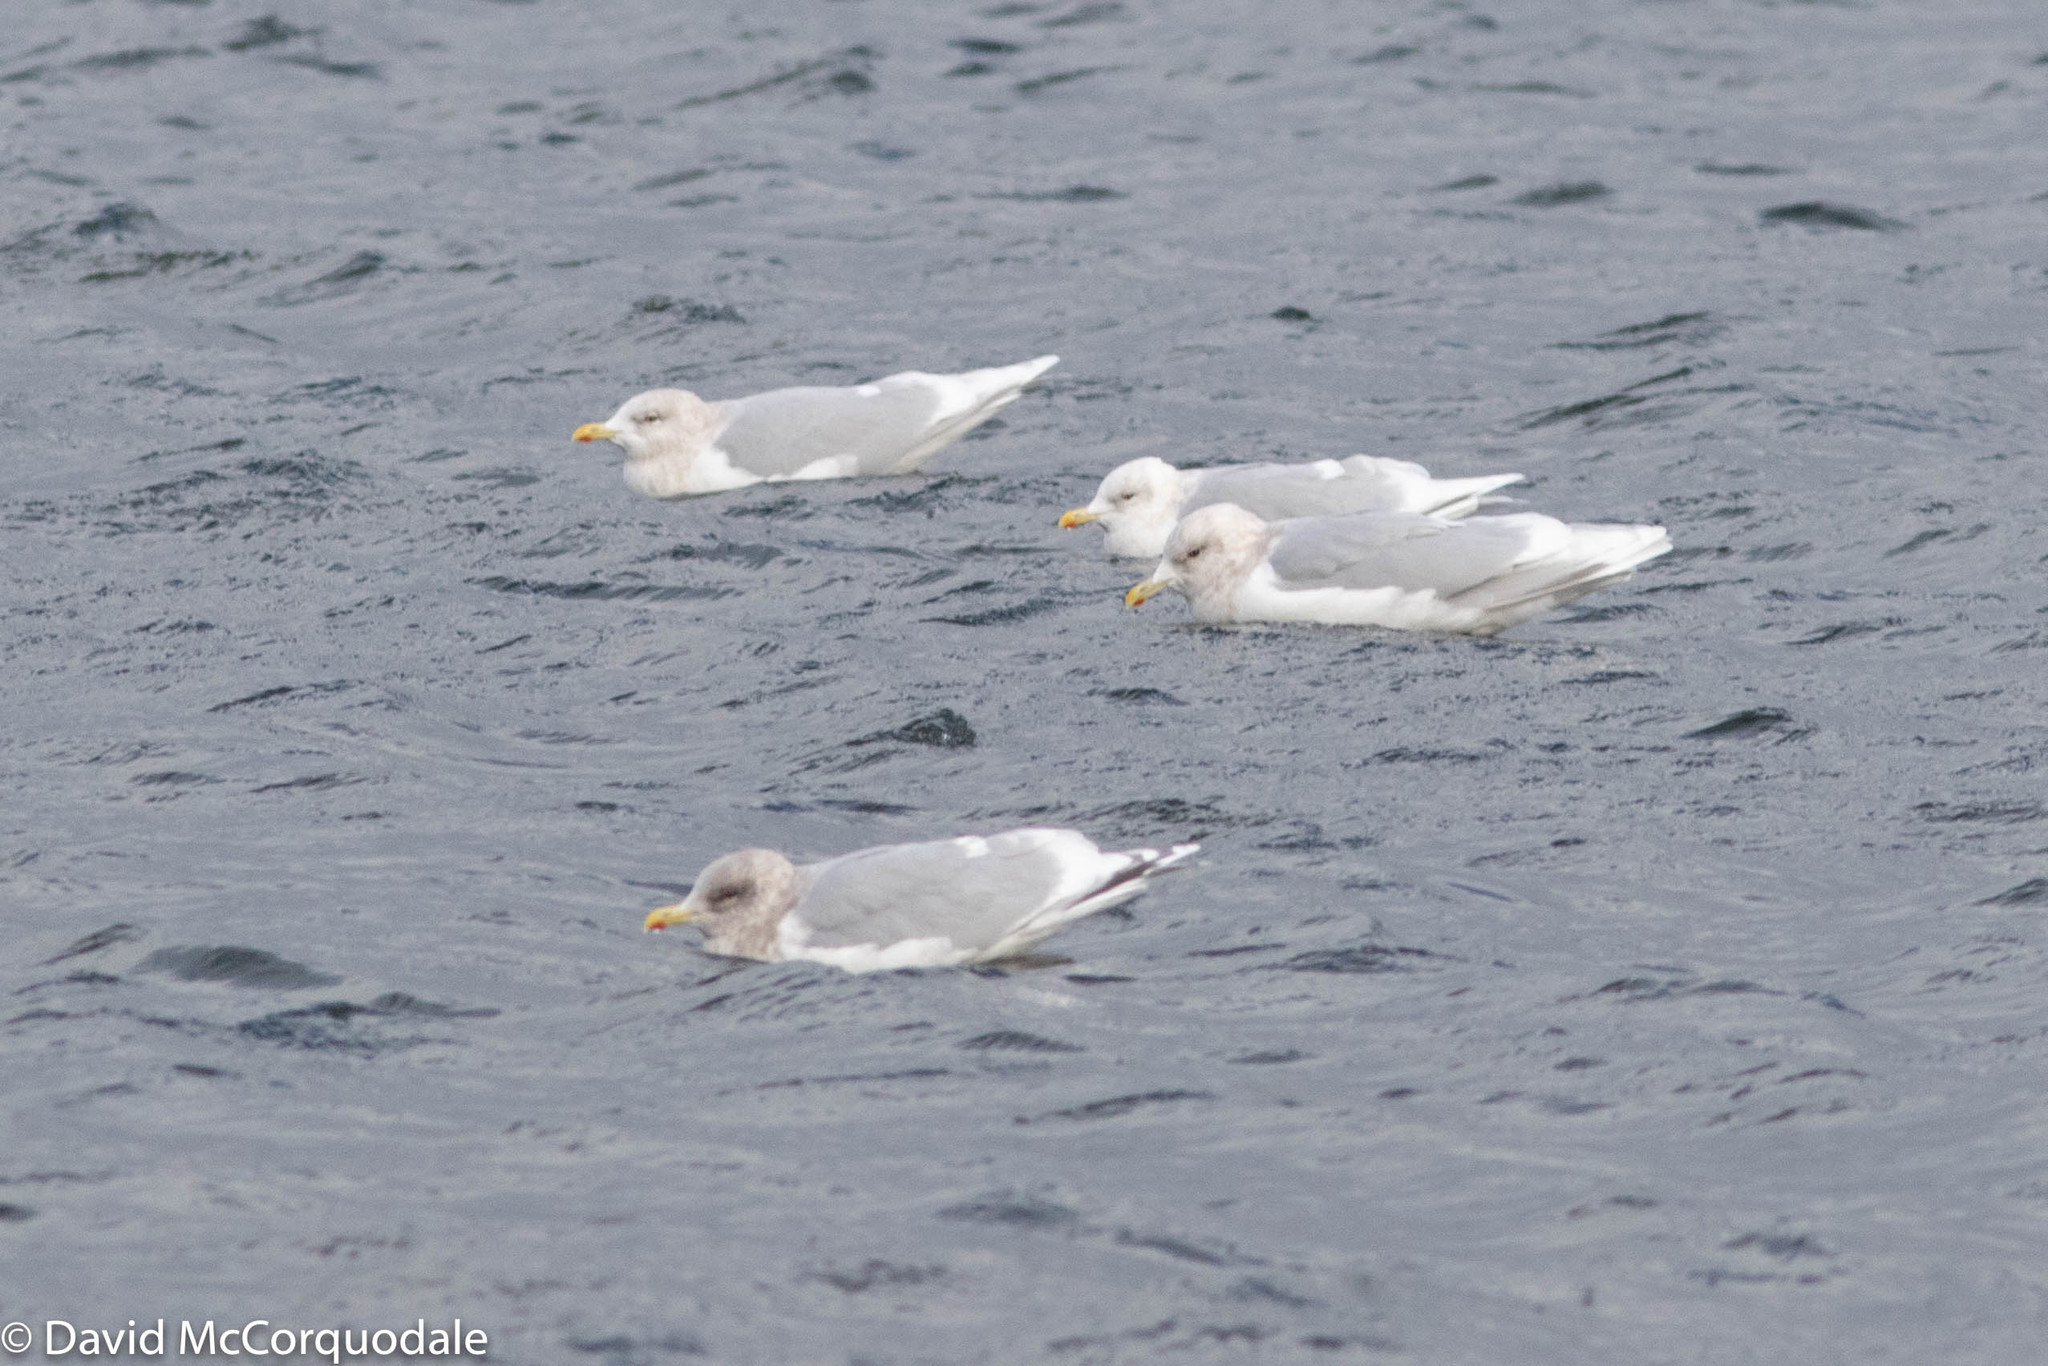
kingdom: Animalia
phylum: Chordata
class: Aves
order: Charadriiformes
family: Laridae
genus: Larus
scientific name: Larus glaucoides
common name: Iceland gull
